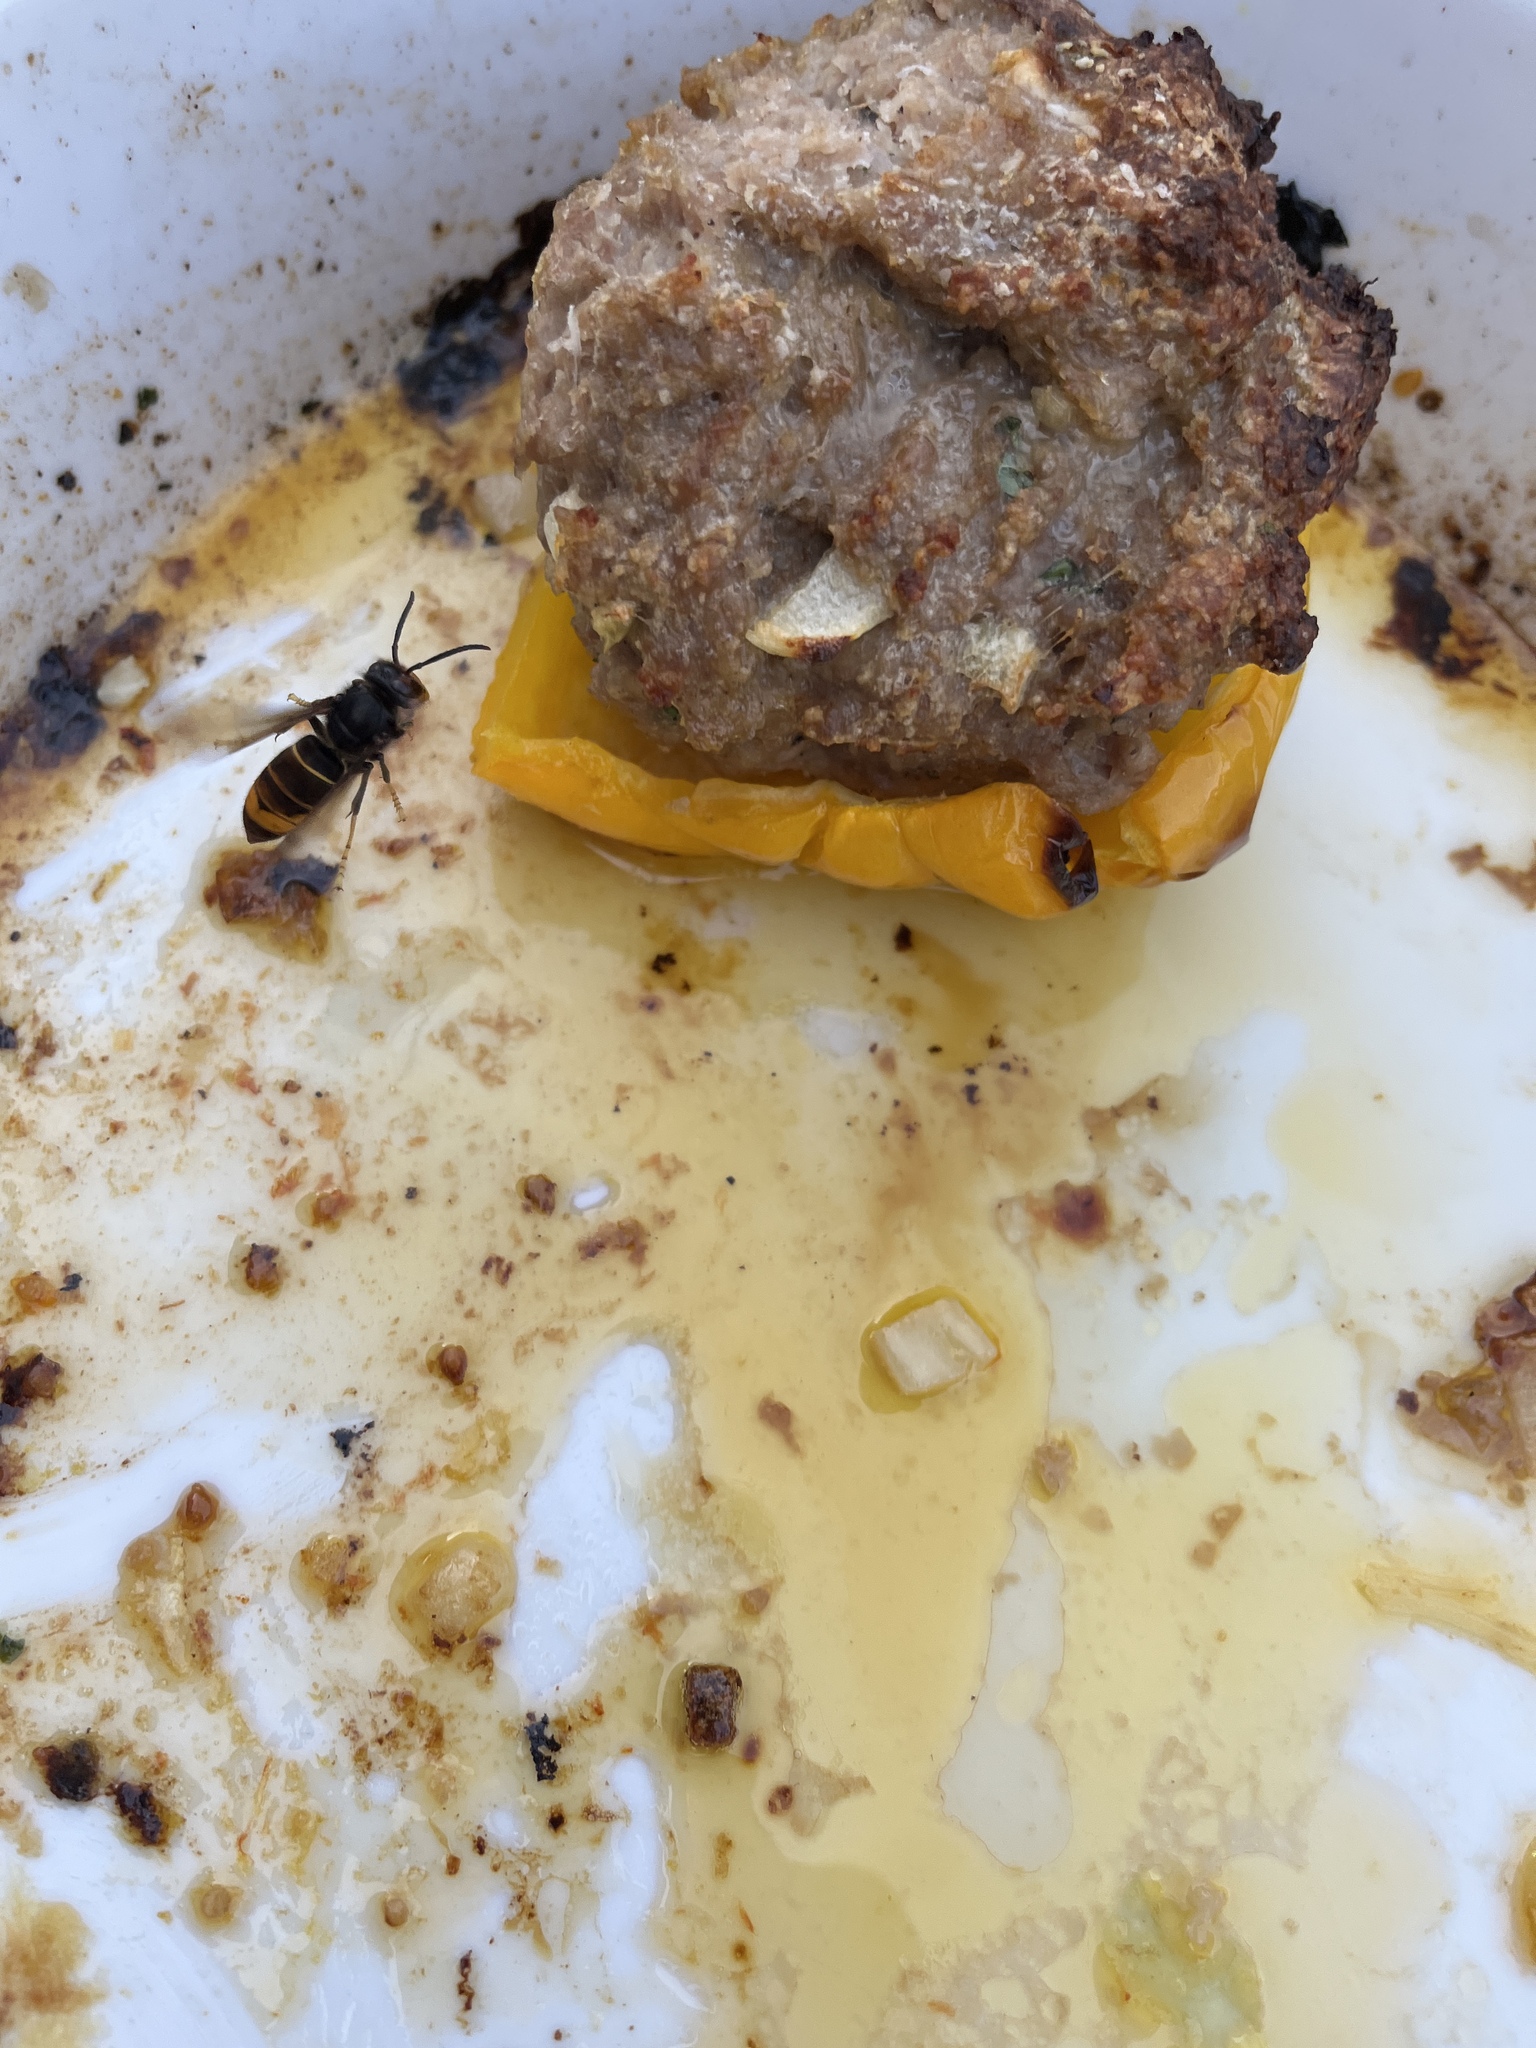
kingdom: Animalia
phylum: Arthropoda
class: Insecta
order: Hymenoptera
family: Vespidae
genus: Vespa
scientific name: Vespa velutina
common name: Asian hornet
